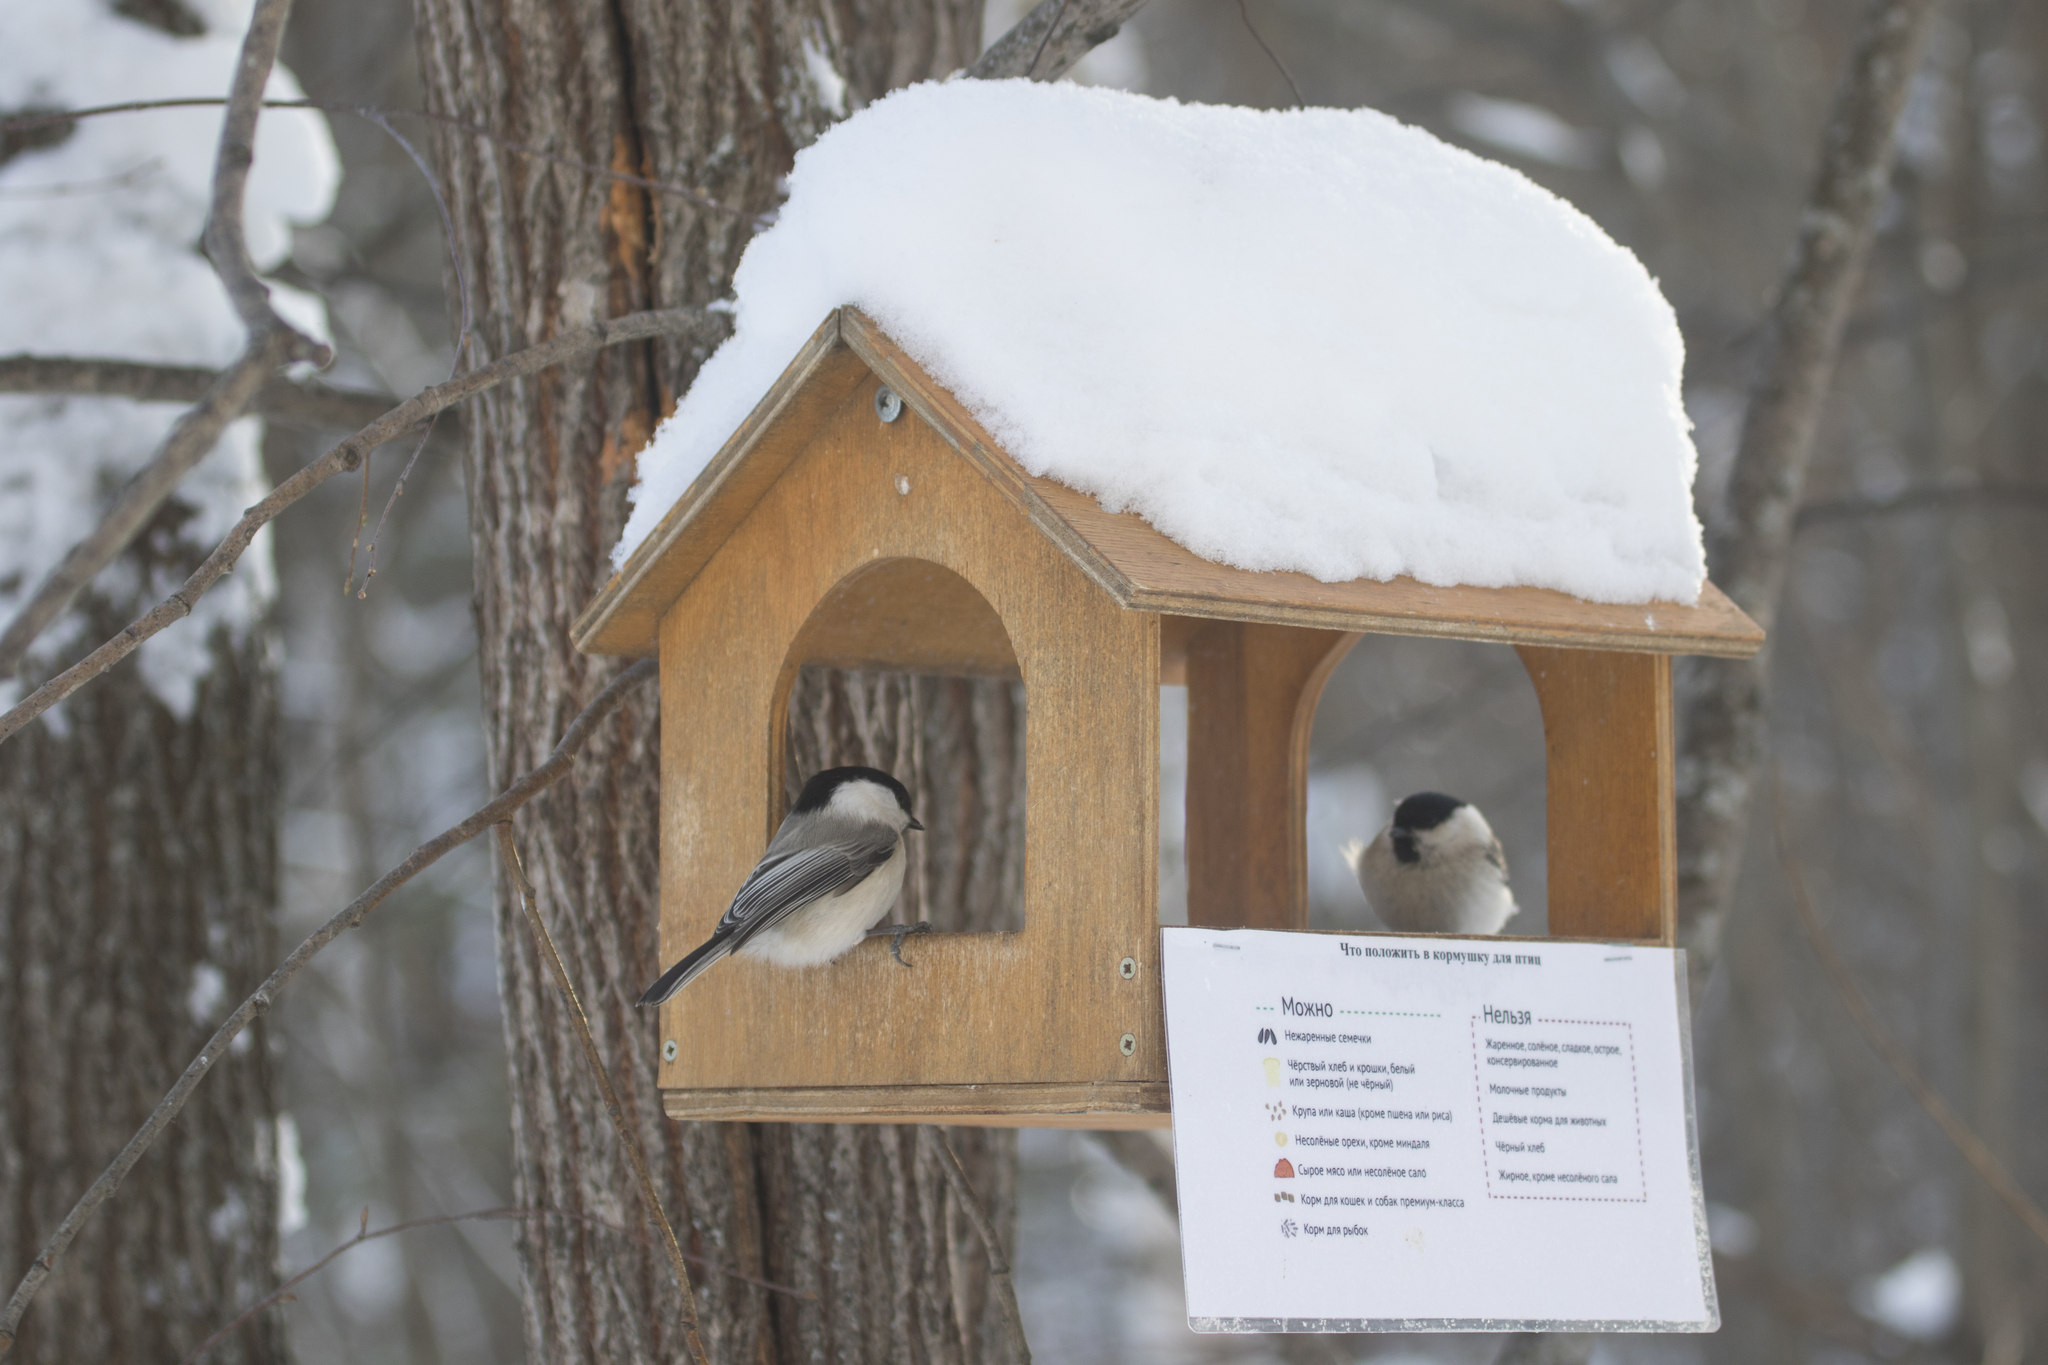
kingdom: Animalia
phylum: Chordata
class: Aves
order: Passeriformes
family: Paridae
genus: Poecile
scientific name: Poecile montanus
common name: Willow tit
